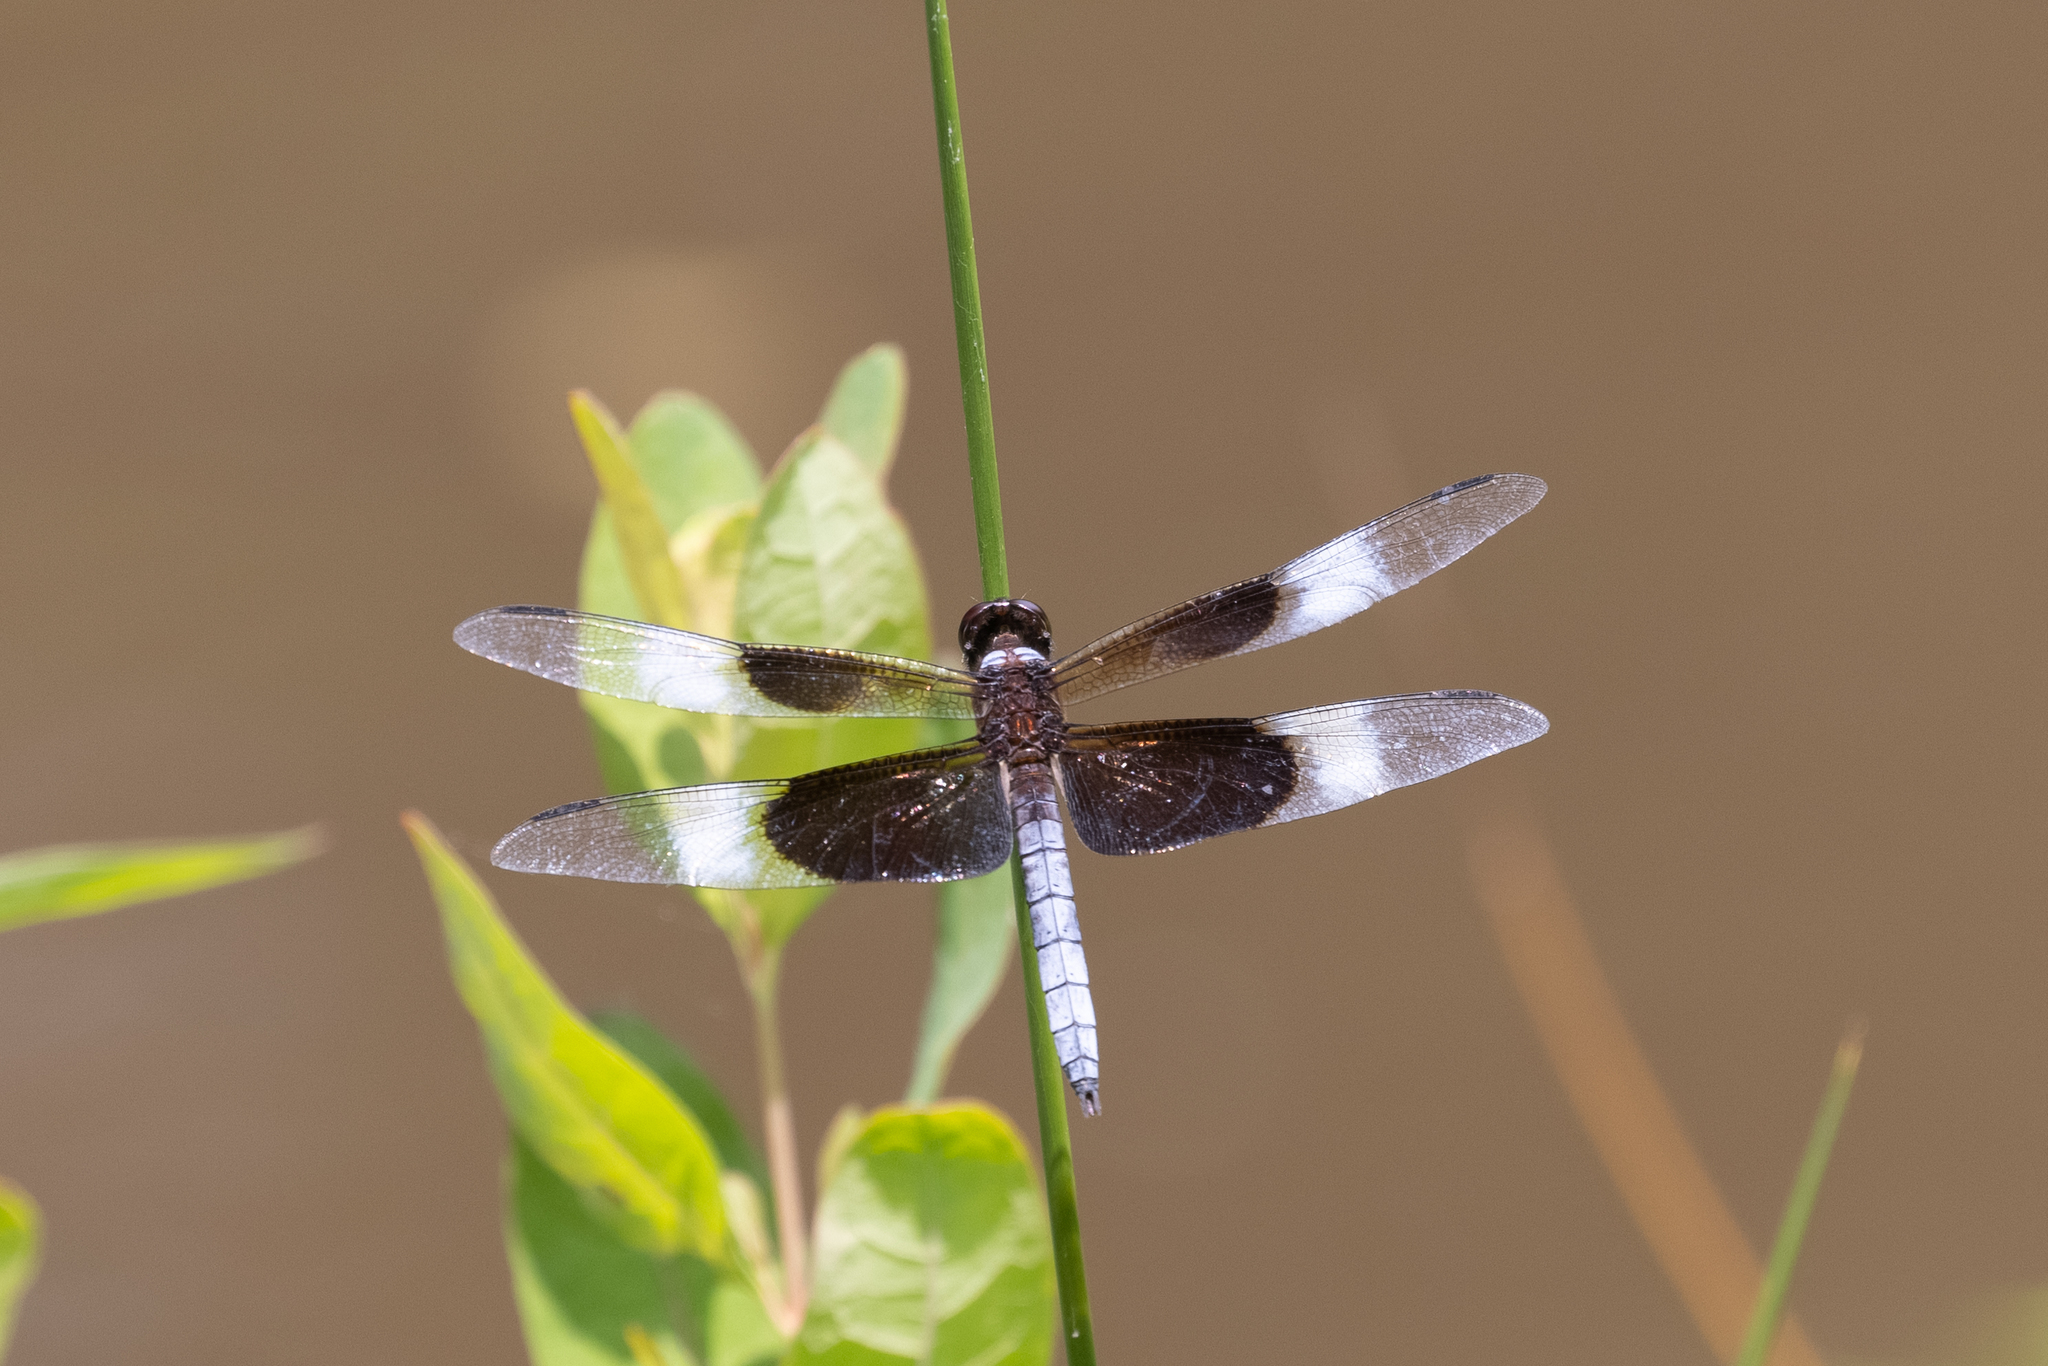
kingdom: Animalia
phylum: Arthropoda
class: Insecta
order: Odonata
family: Libellulidae
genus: Libellula
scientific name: Libellula luctuosa
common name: Widow skimmer
